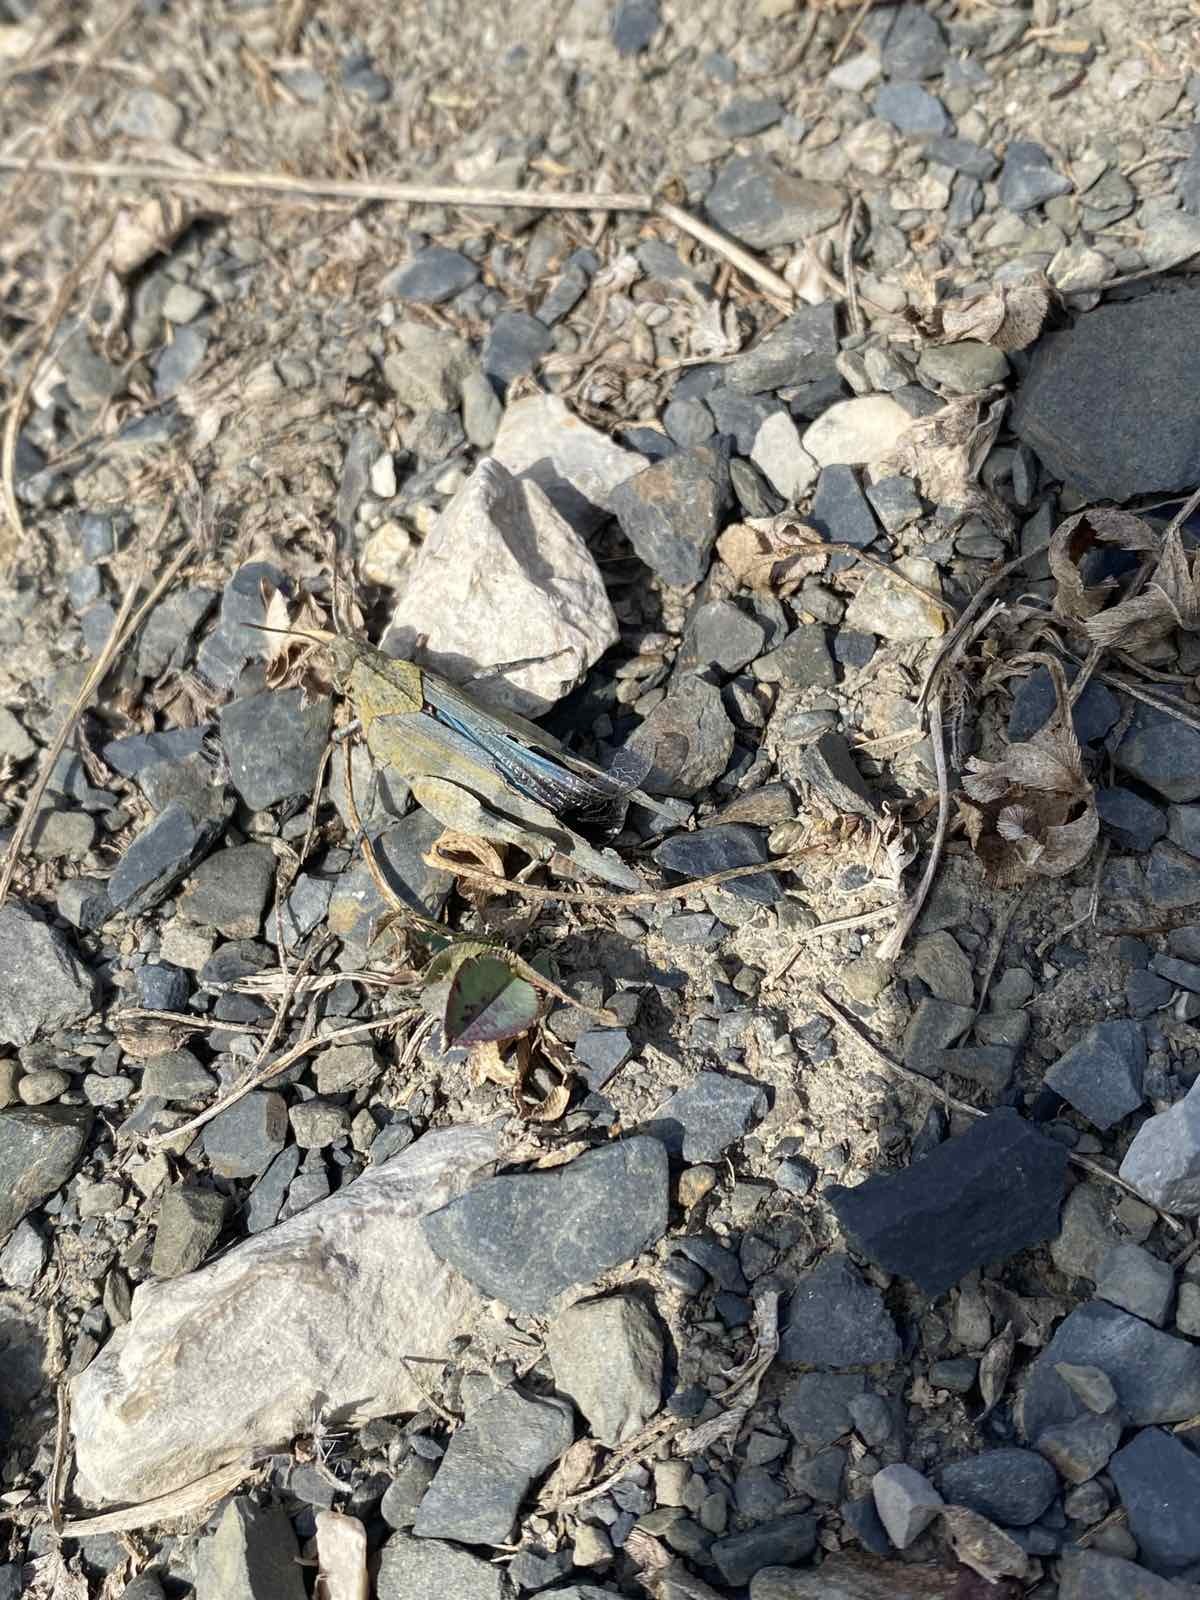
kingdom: Animalia
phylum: Arthropoda
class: Insecta
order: Orthoptera
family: Acrididae
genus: Oedipoda
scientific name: Oedipoda caerulescens
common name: Blue-winged grasshopper
